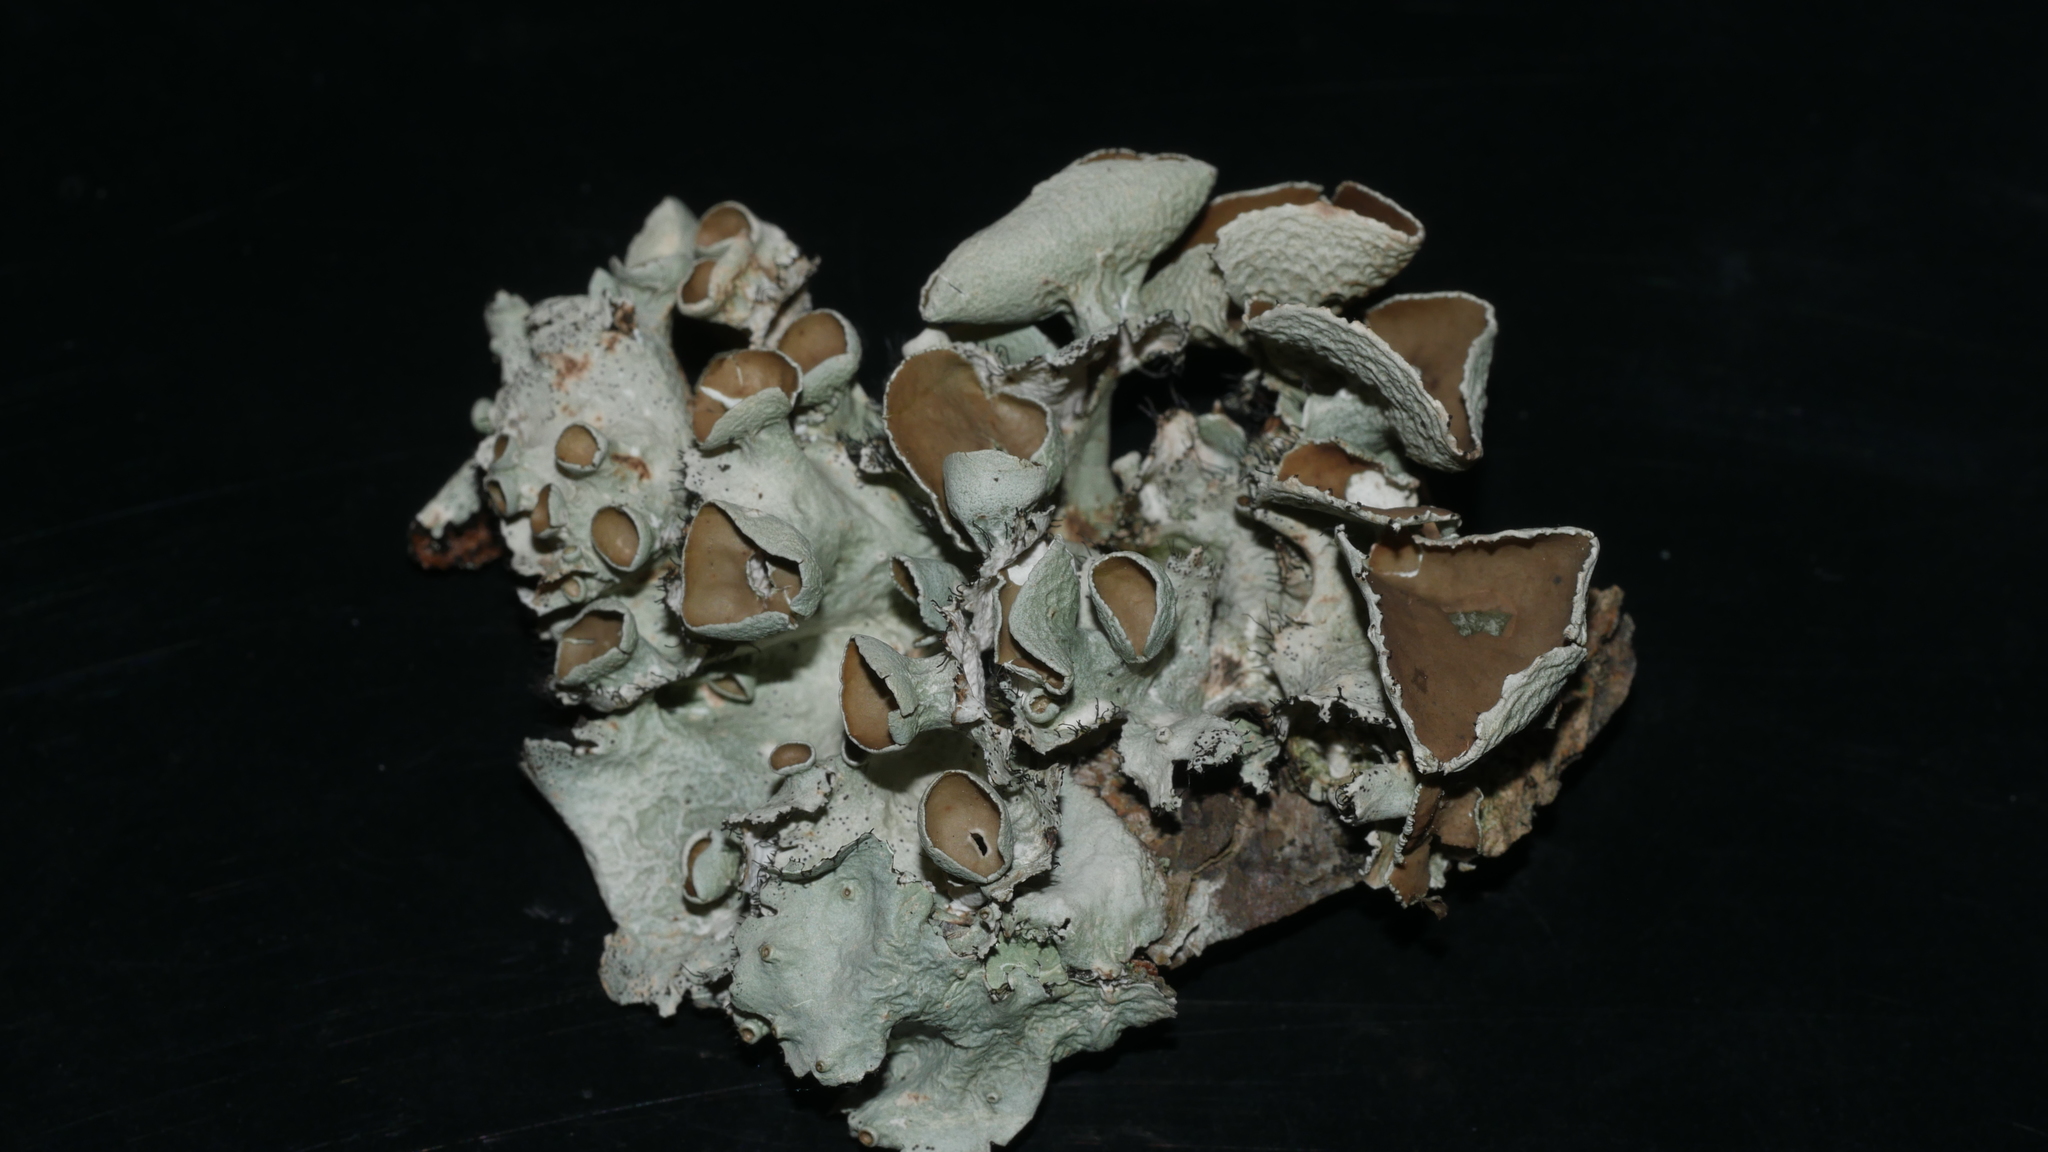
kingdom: Fungi
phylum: Ascomycota
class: Lecanoromycetes
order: Lecanorales
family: Parmeliaceae
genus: Parmotrema
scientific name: Parmotrema perforatum
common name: Perforated ruffle lichen
